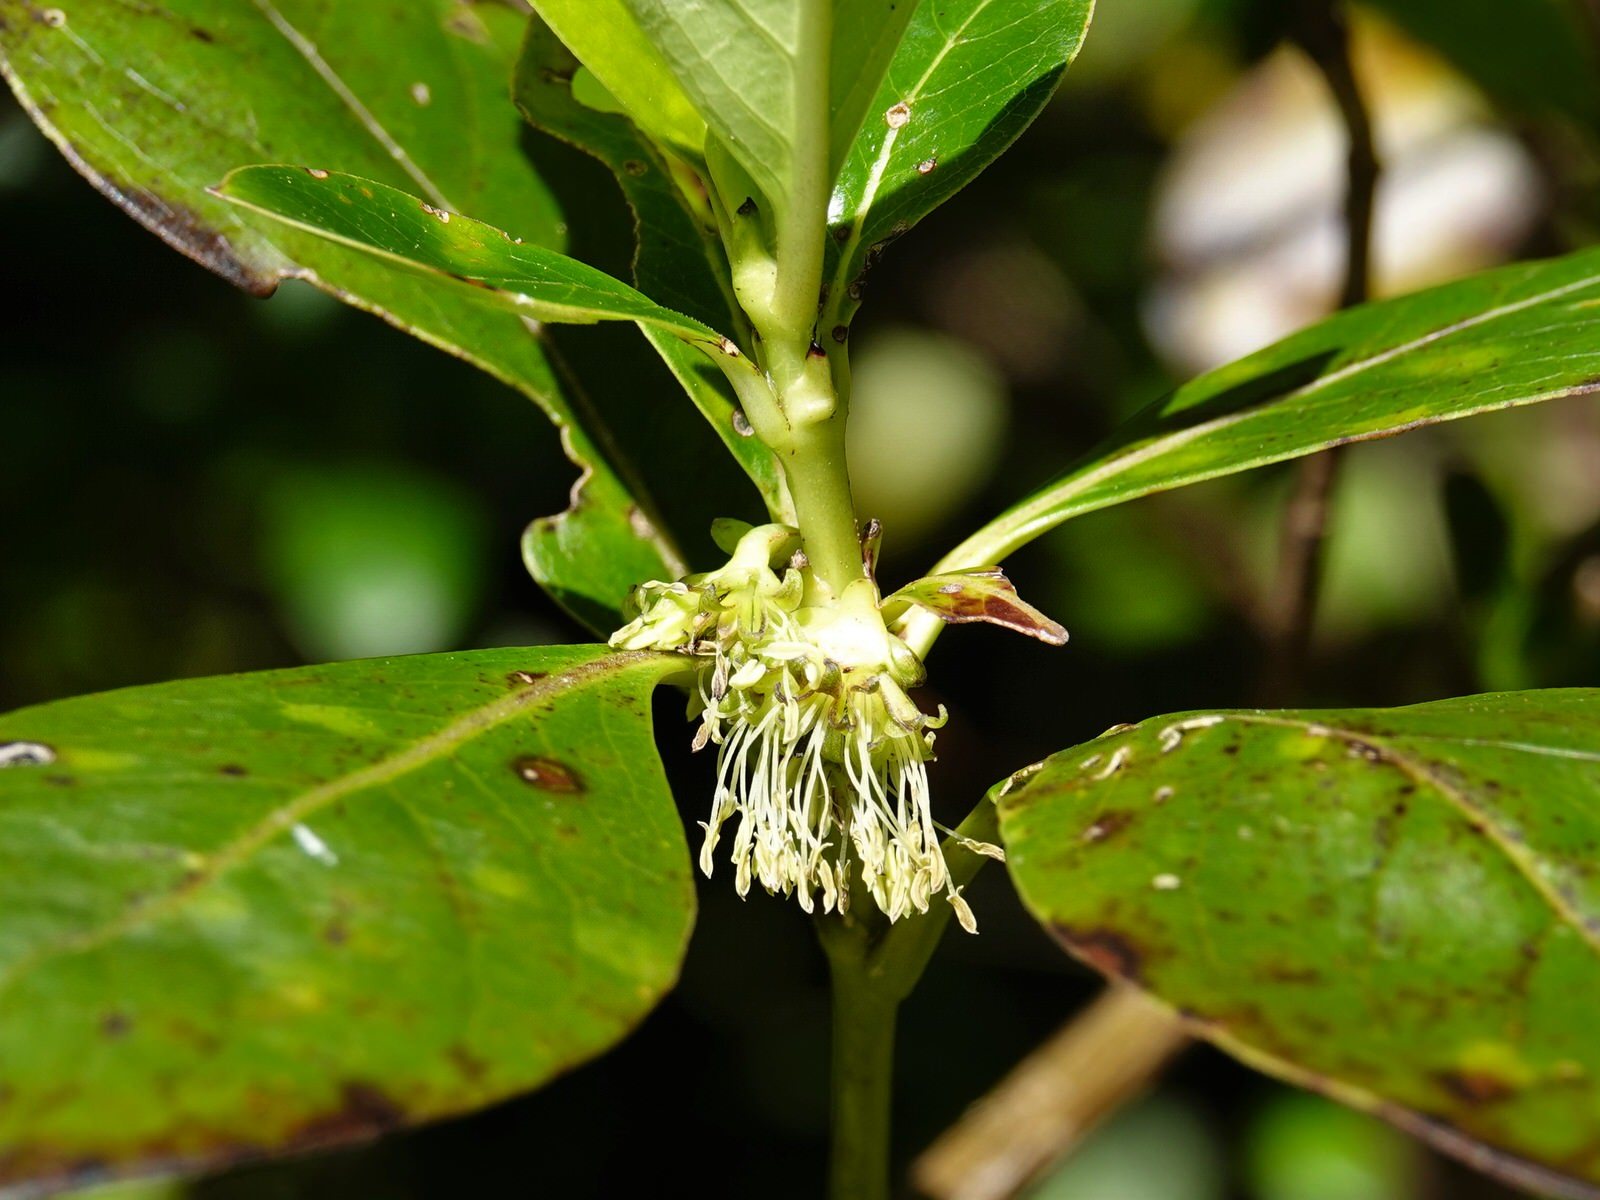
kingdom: Plantae
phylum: Tracheophyta
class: Magnoliopsida
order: Gentianales
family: Rubiaceae
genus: Coprosma
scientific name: Coprosma robusta
